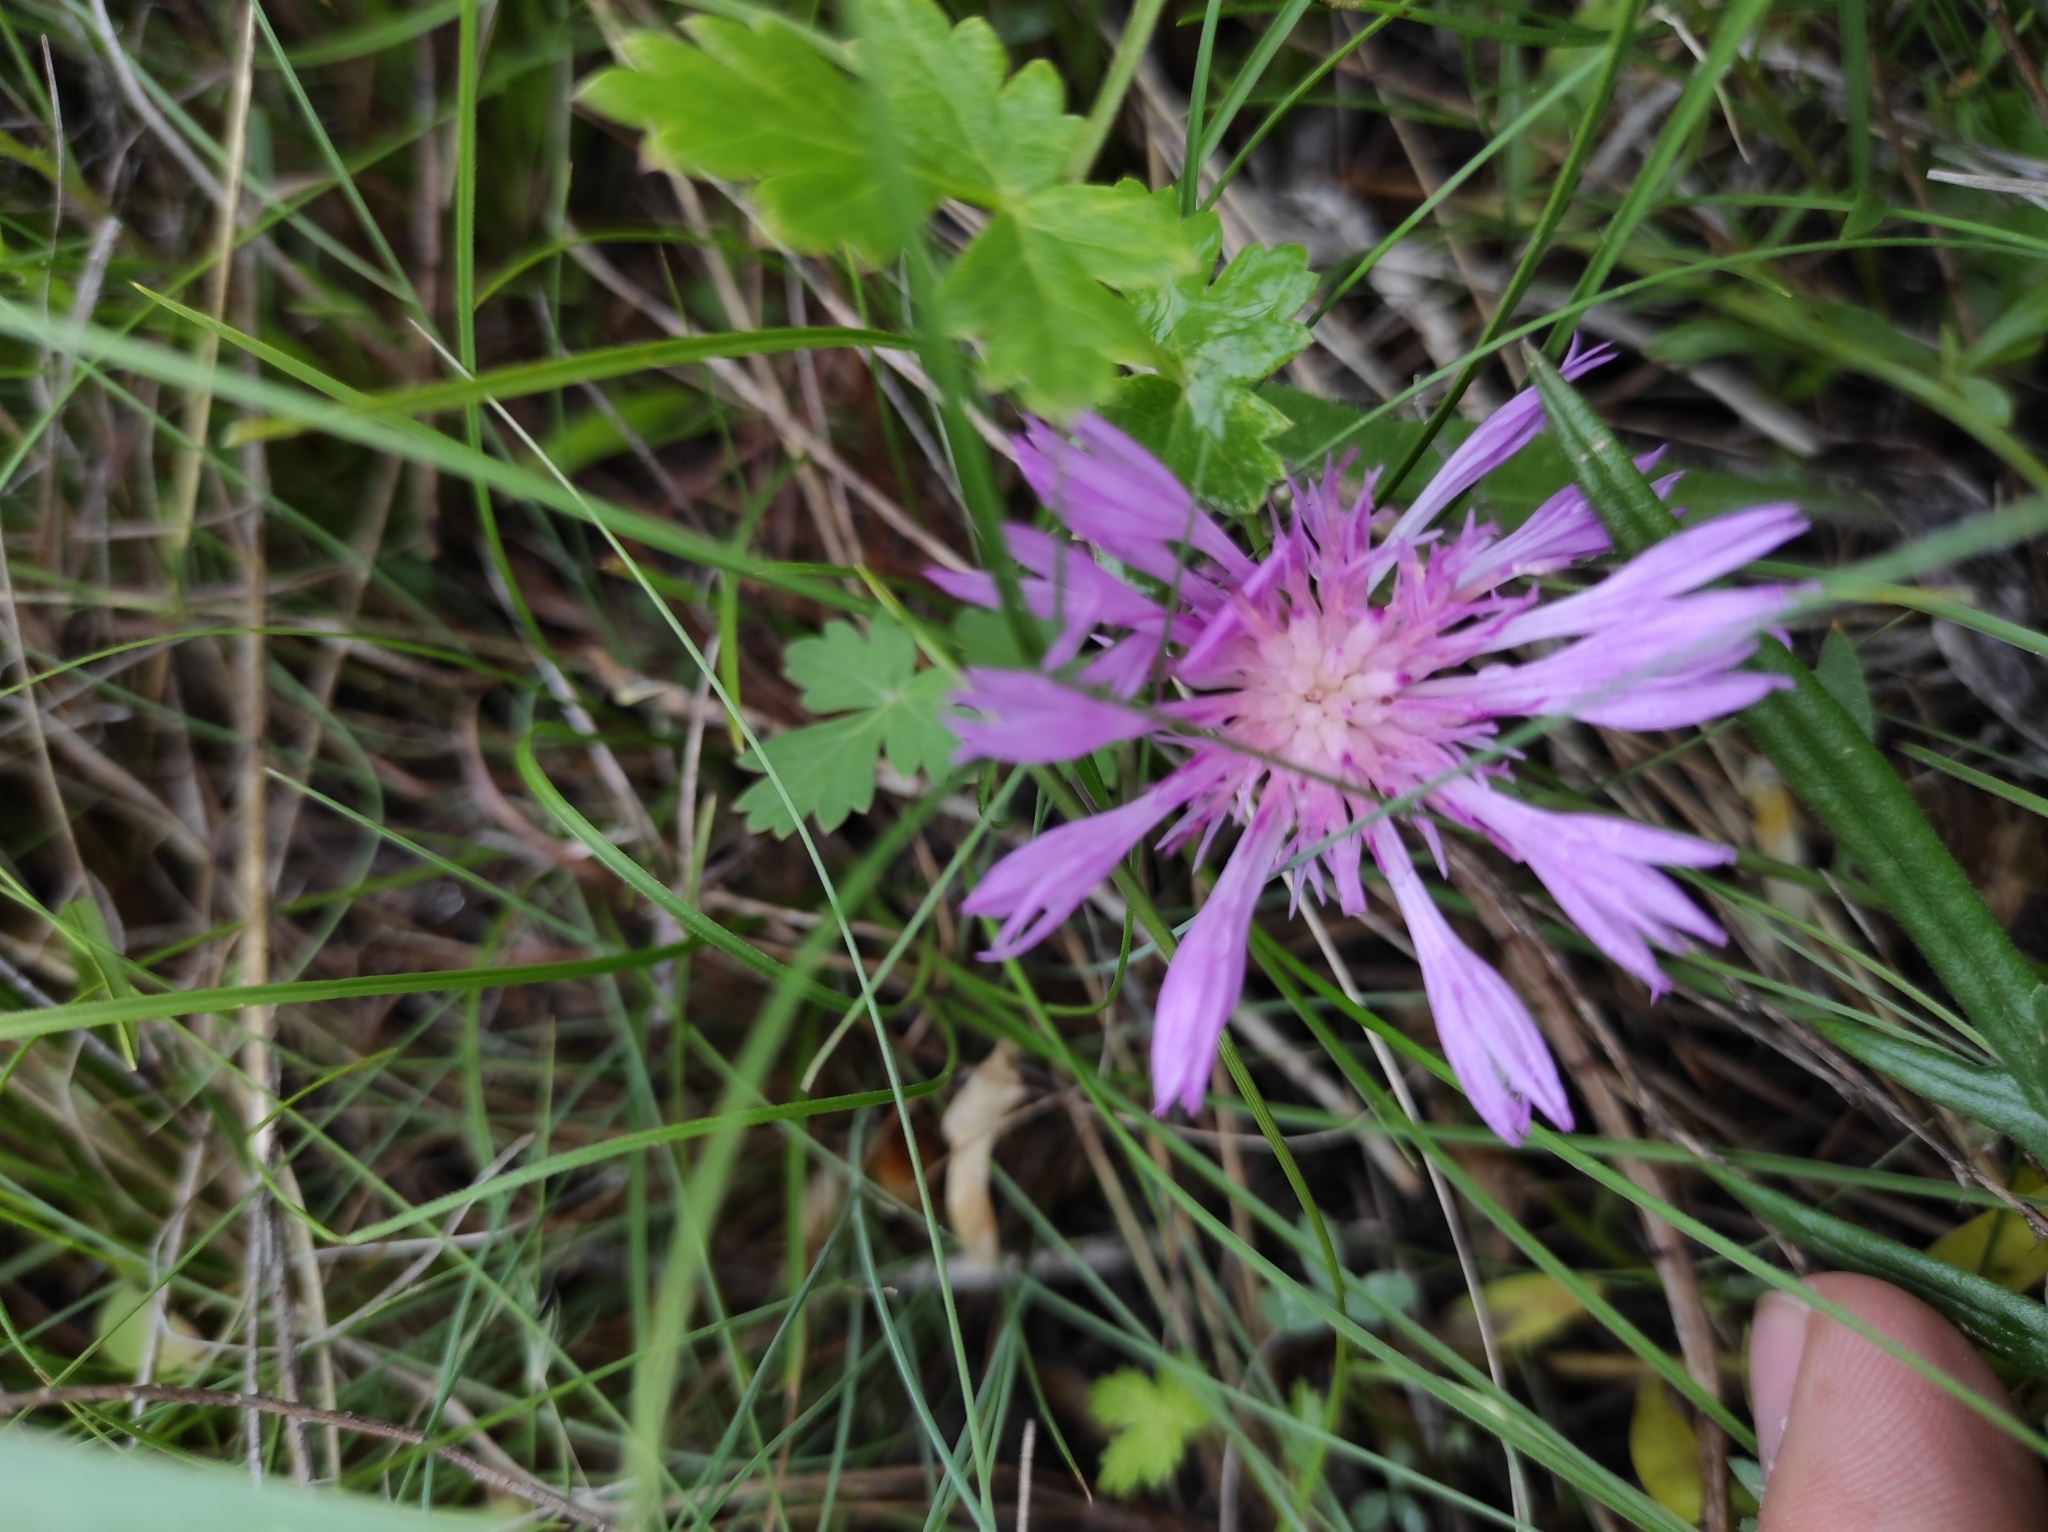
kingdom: Plantae
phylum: Tracheophyta
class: Magnoliopsida
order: Asterales
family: Asteraceae
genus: Psephellus
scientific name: Psephellus marschallianus
